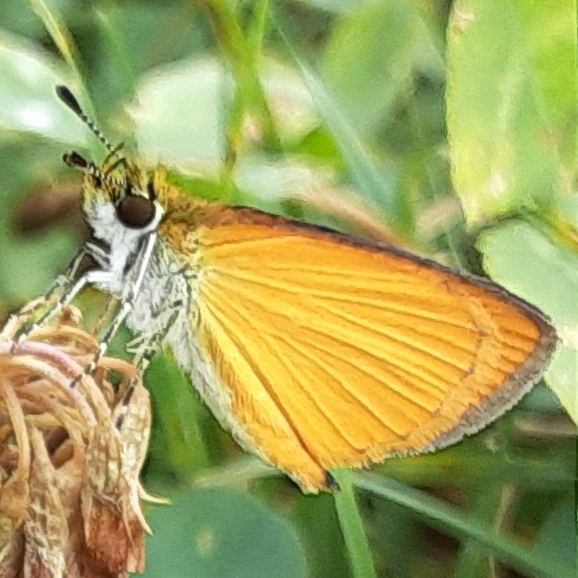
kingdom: Animalia
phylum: Arthropoda
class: Insecta
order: Lepidoptera
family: Hesperiidae
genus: Ancyloxypha
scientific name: Ancyloxypha numitor
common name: Least skipper
